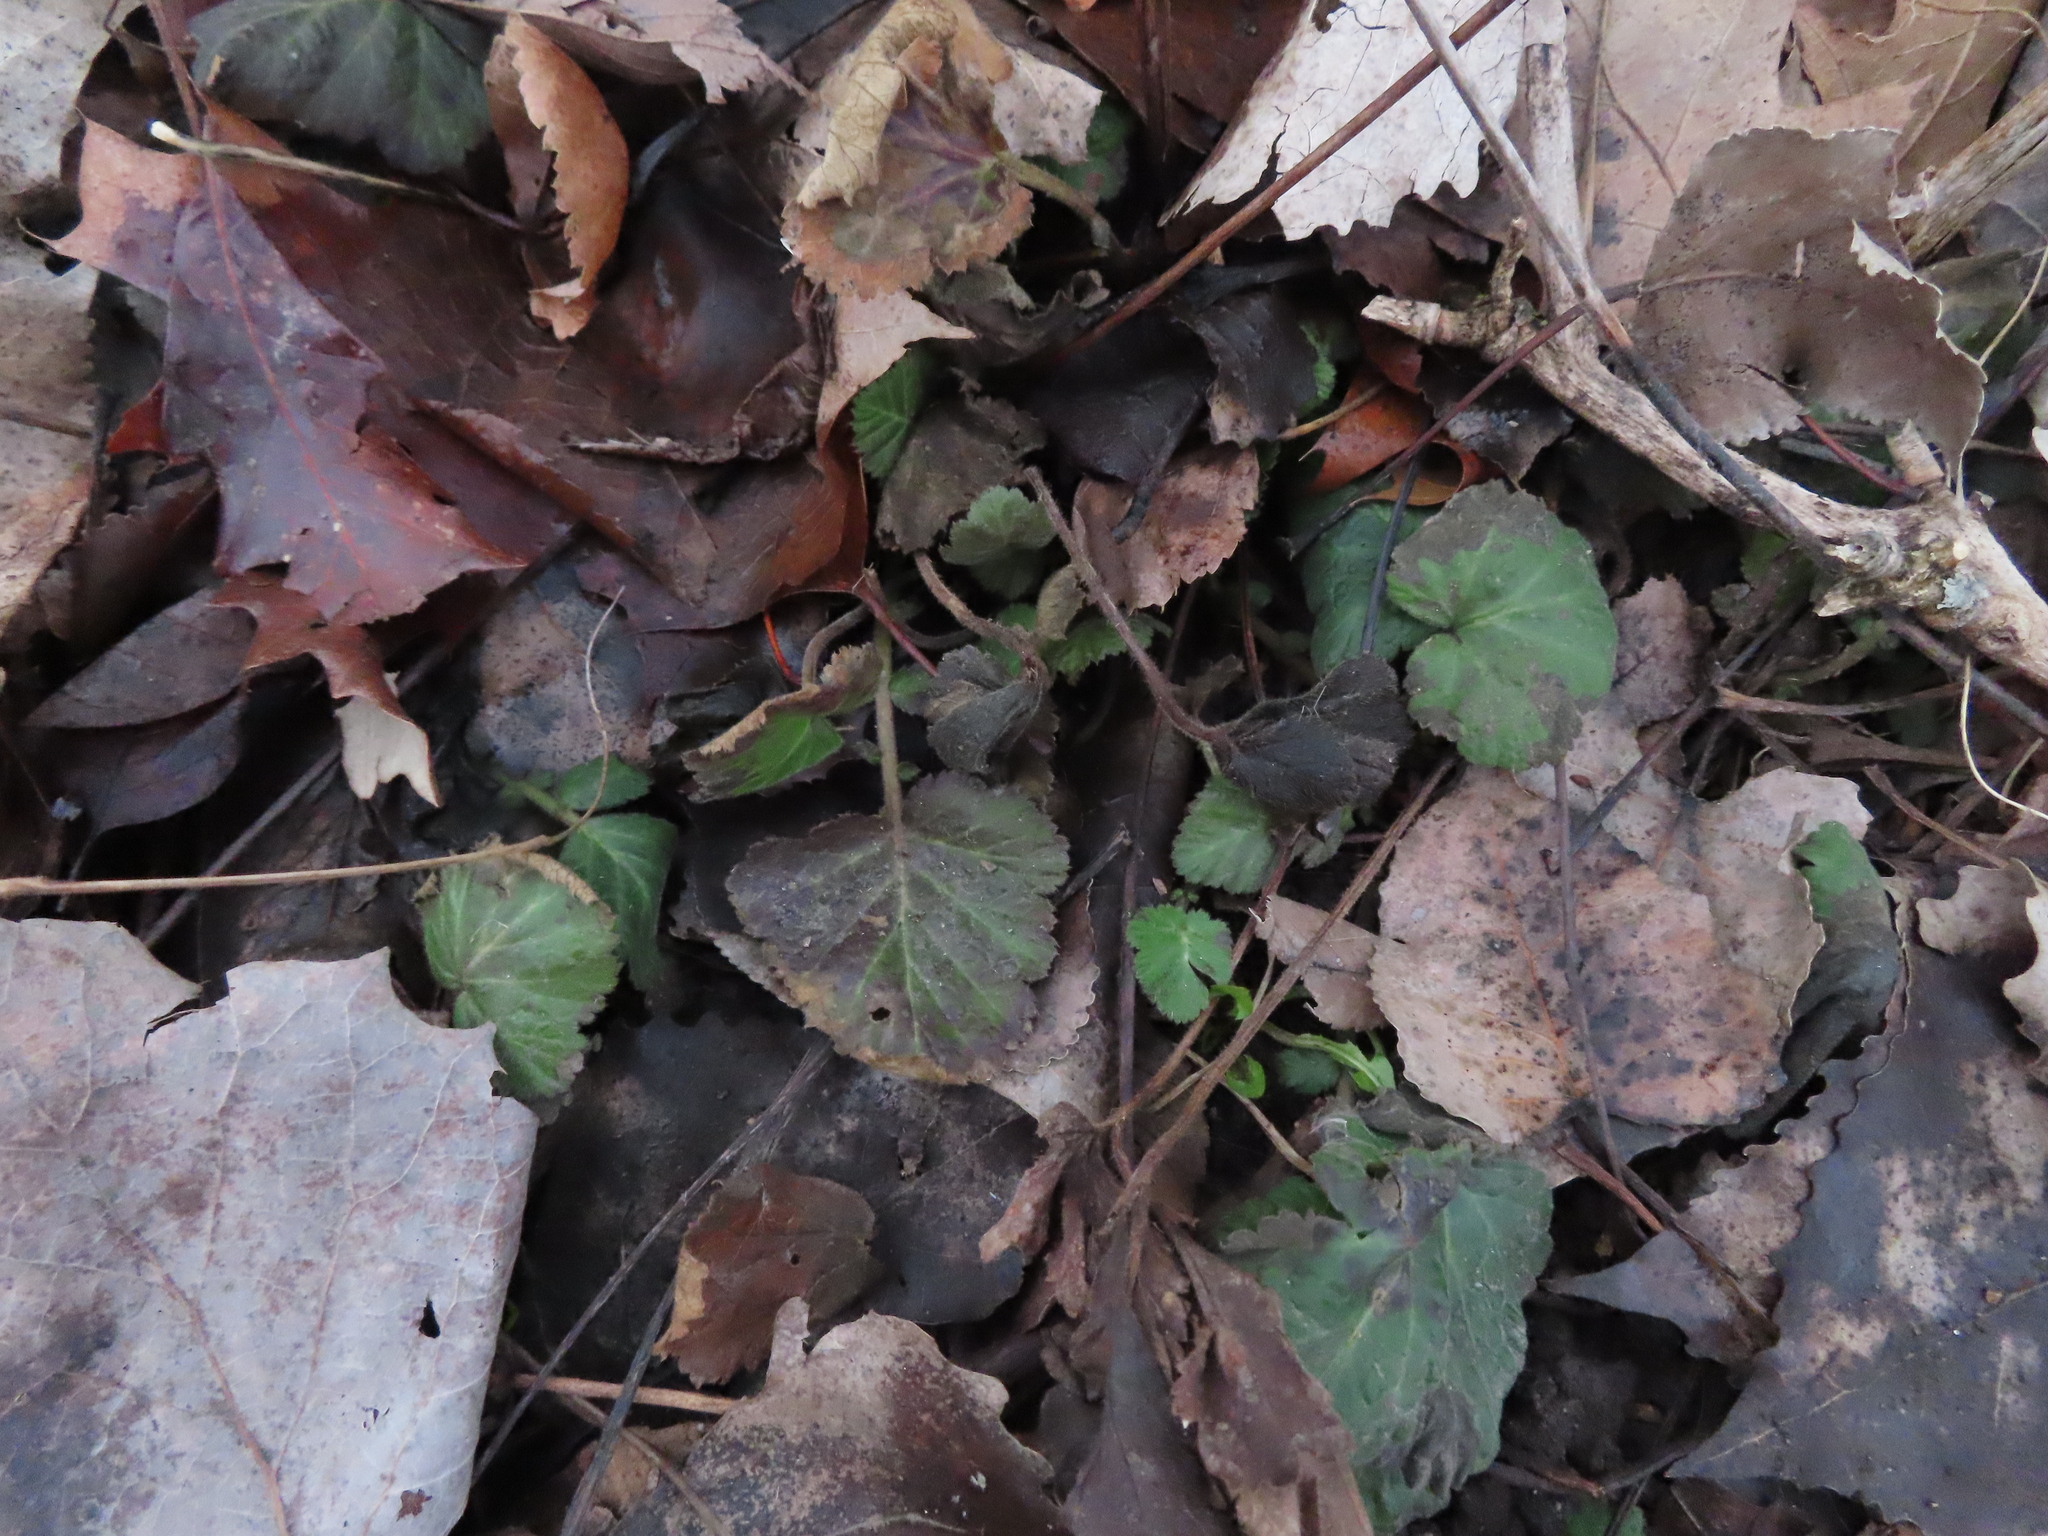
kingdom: Plantae
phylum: Tracheophyta
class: Magnoliopsida
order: Rosales
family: Rosaceae
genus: Geum
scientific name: Geum canadense
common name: White avens
